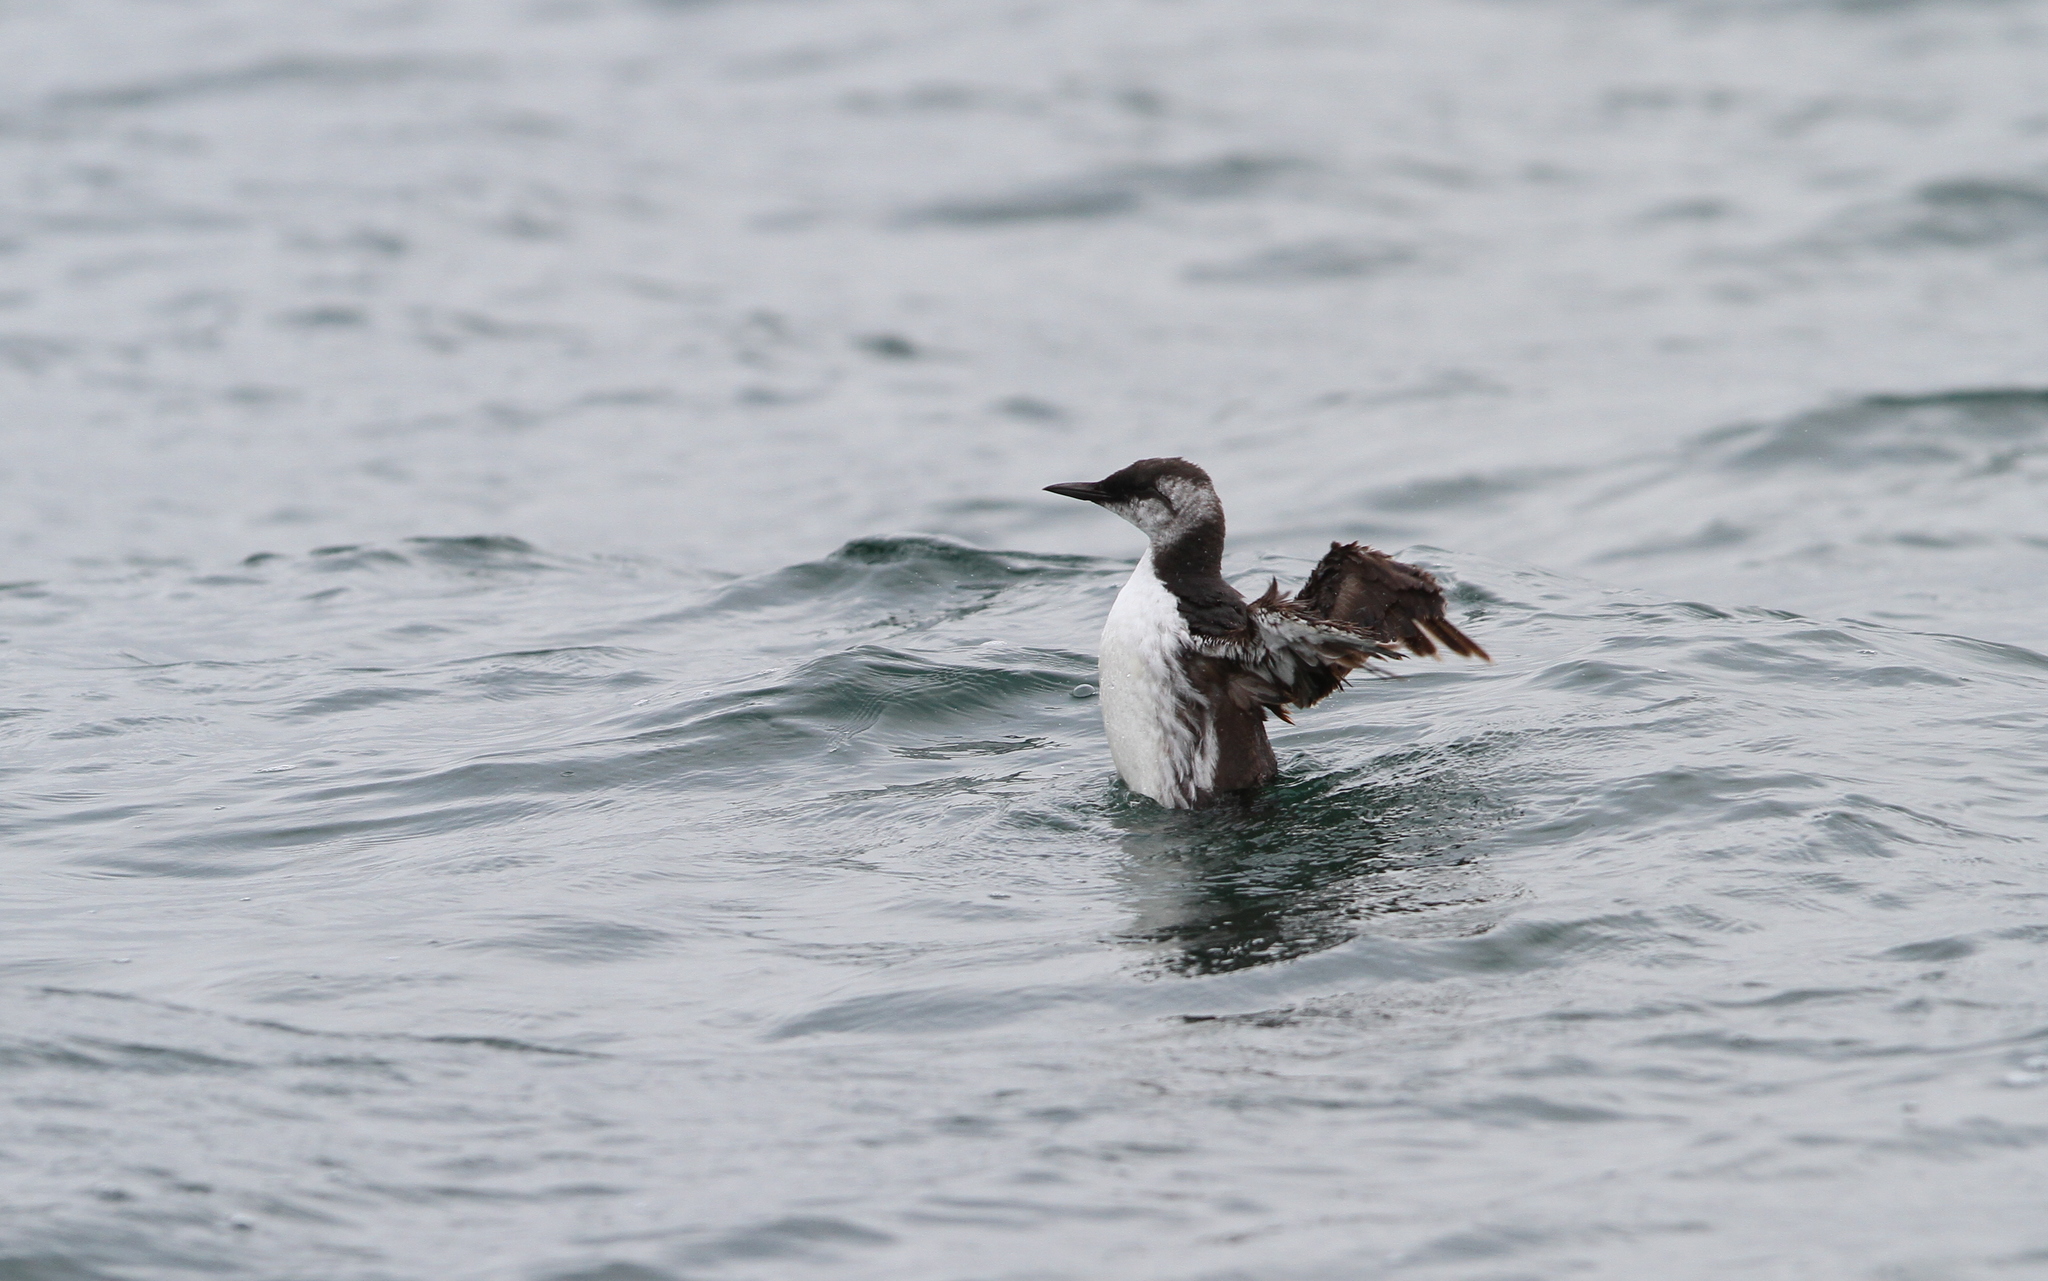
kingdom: Animalia
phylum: Chordata
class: Aves
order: Charadriiformes
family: Alcidae
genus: Uria
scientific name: Uria aalge
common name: Common murre
